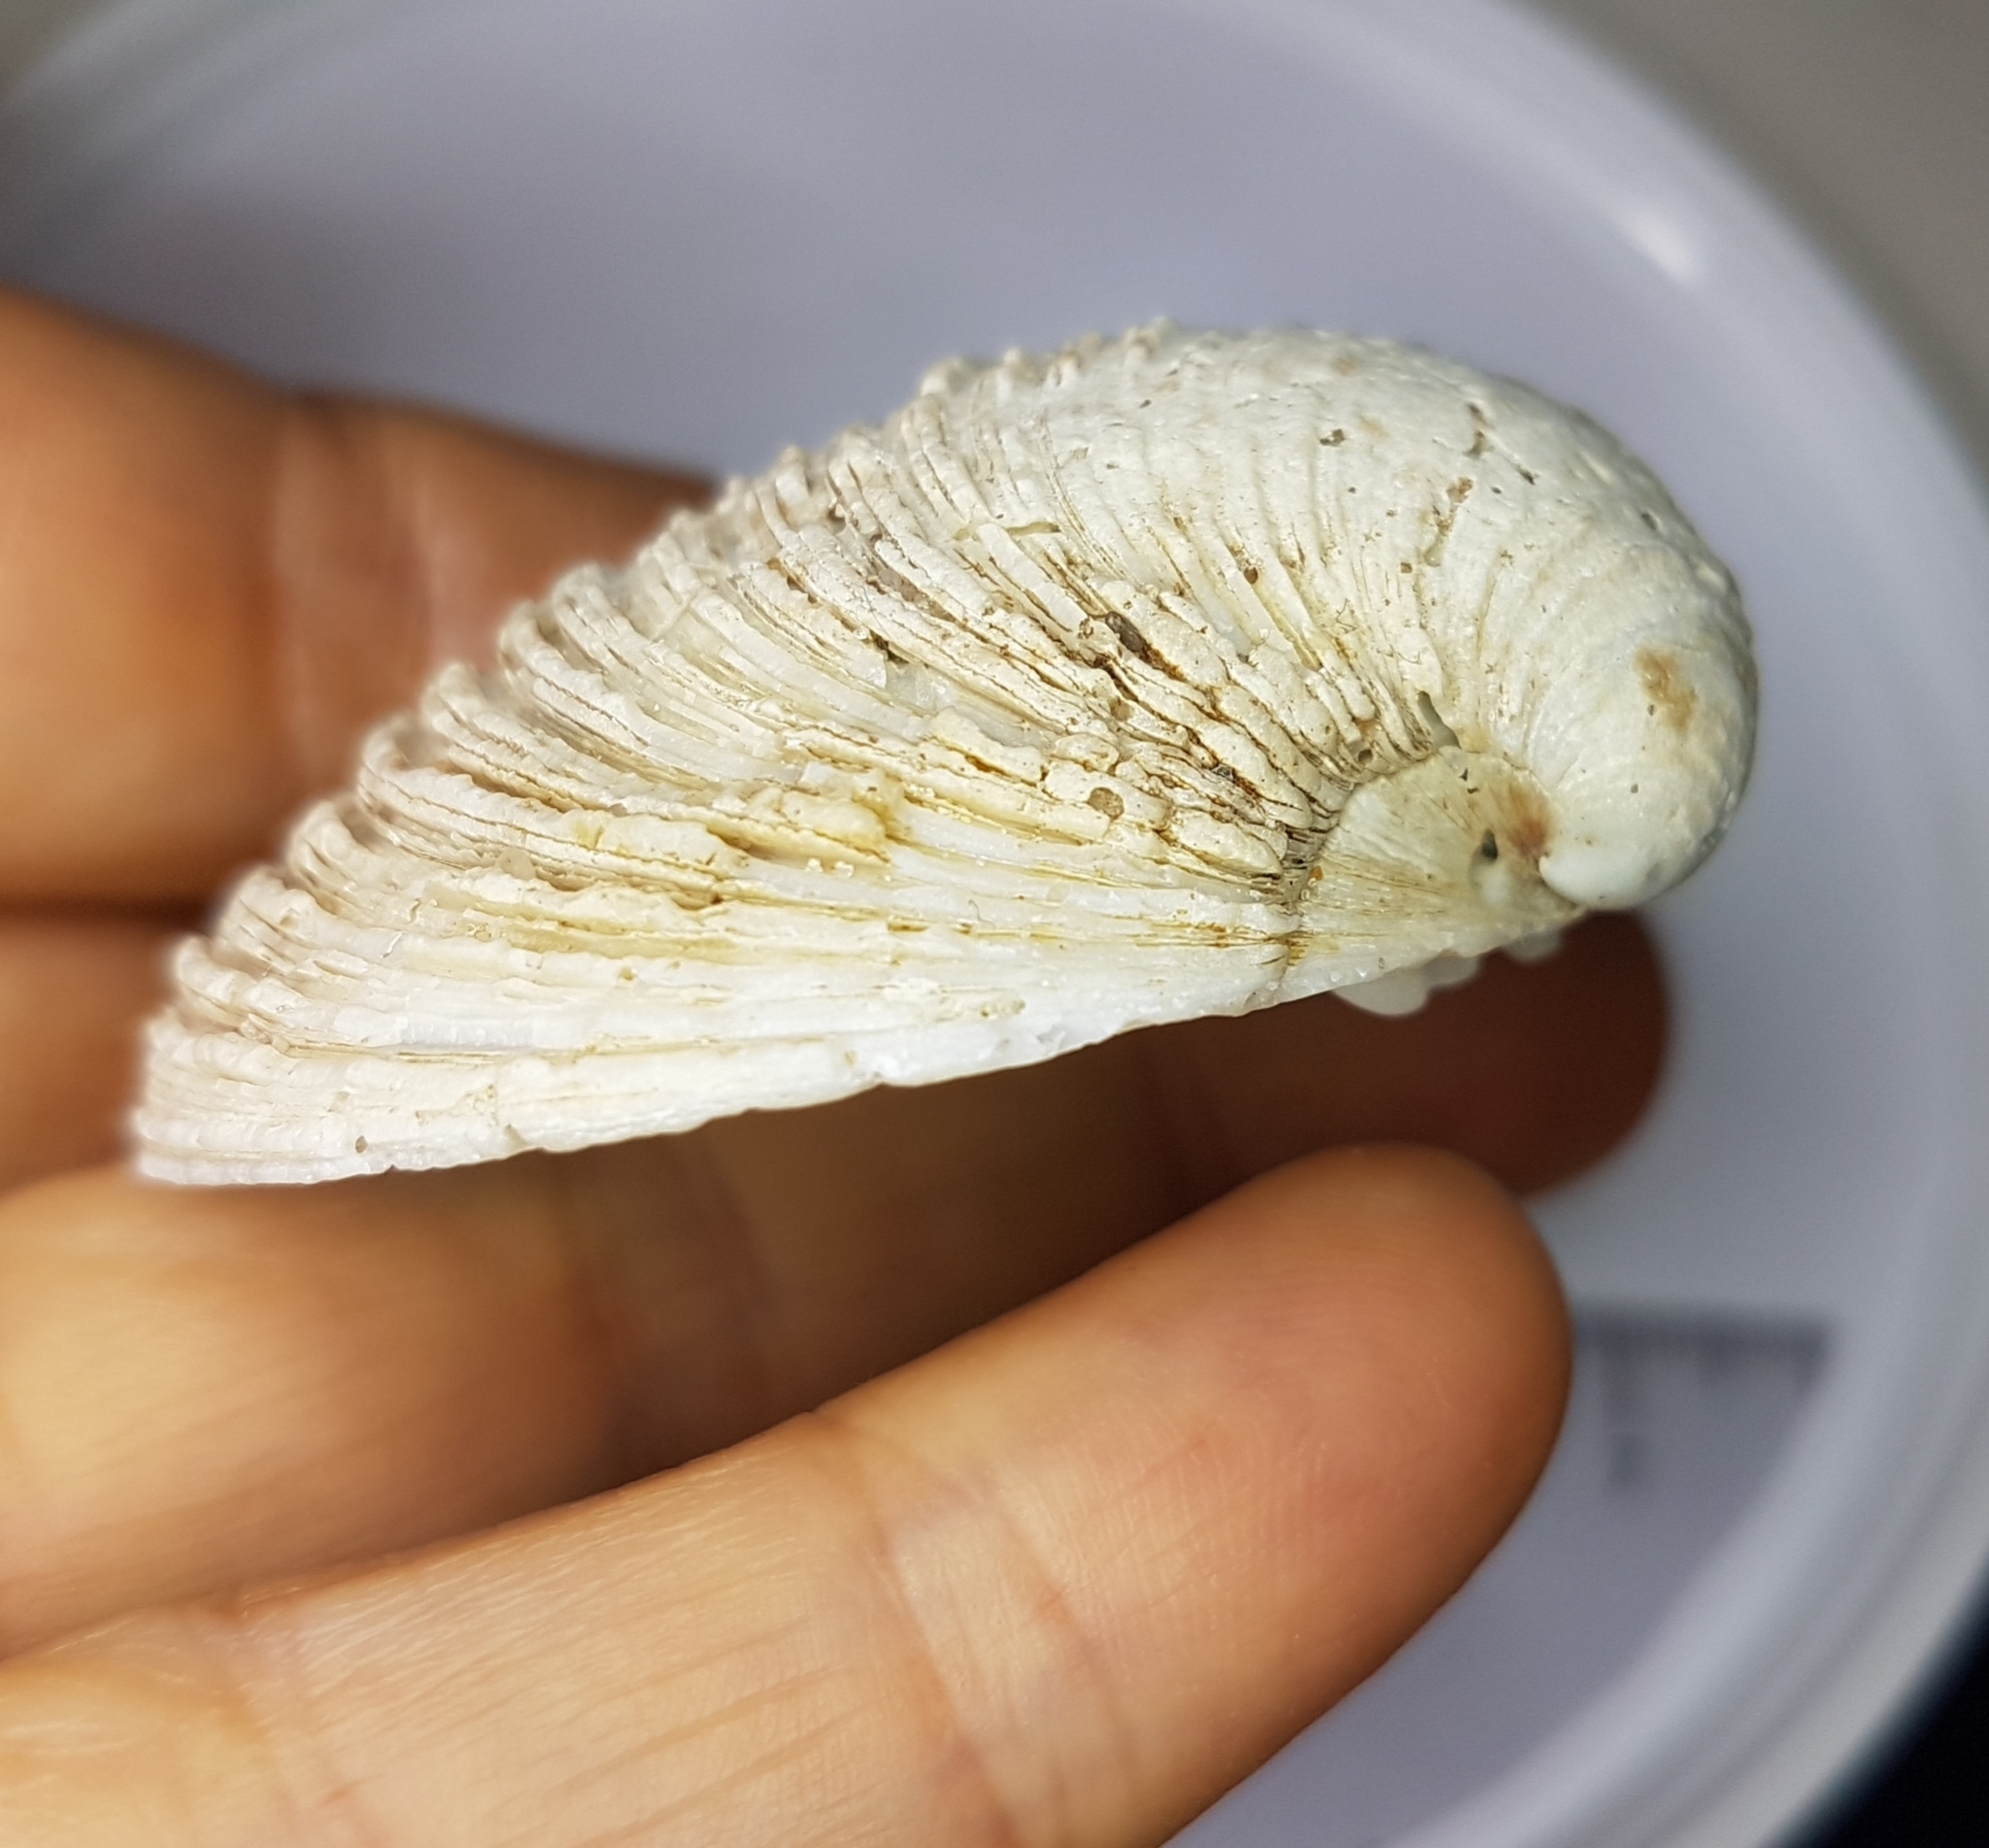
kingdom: Animalia
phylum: Mollusca
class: Bivalvia
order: Venerida
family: Veneridae
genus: Venus
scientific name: Venus verrucosa
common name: Warty venus
